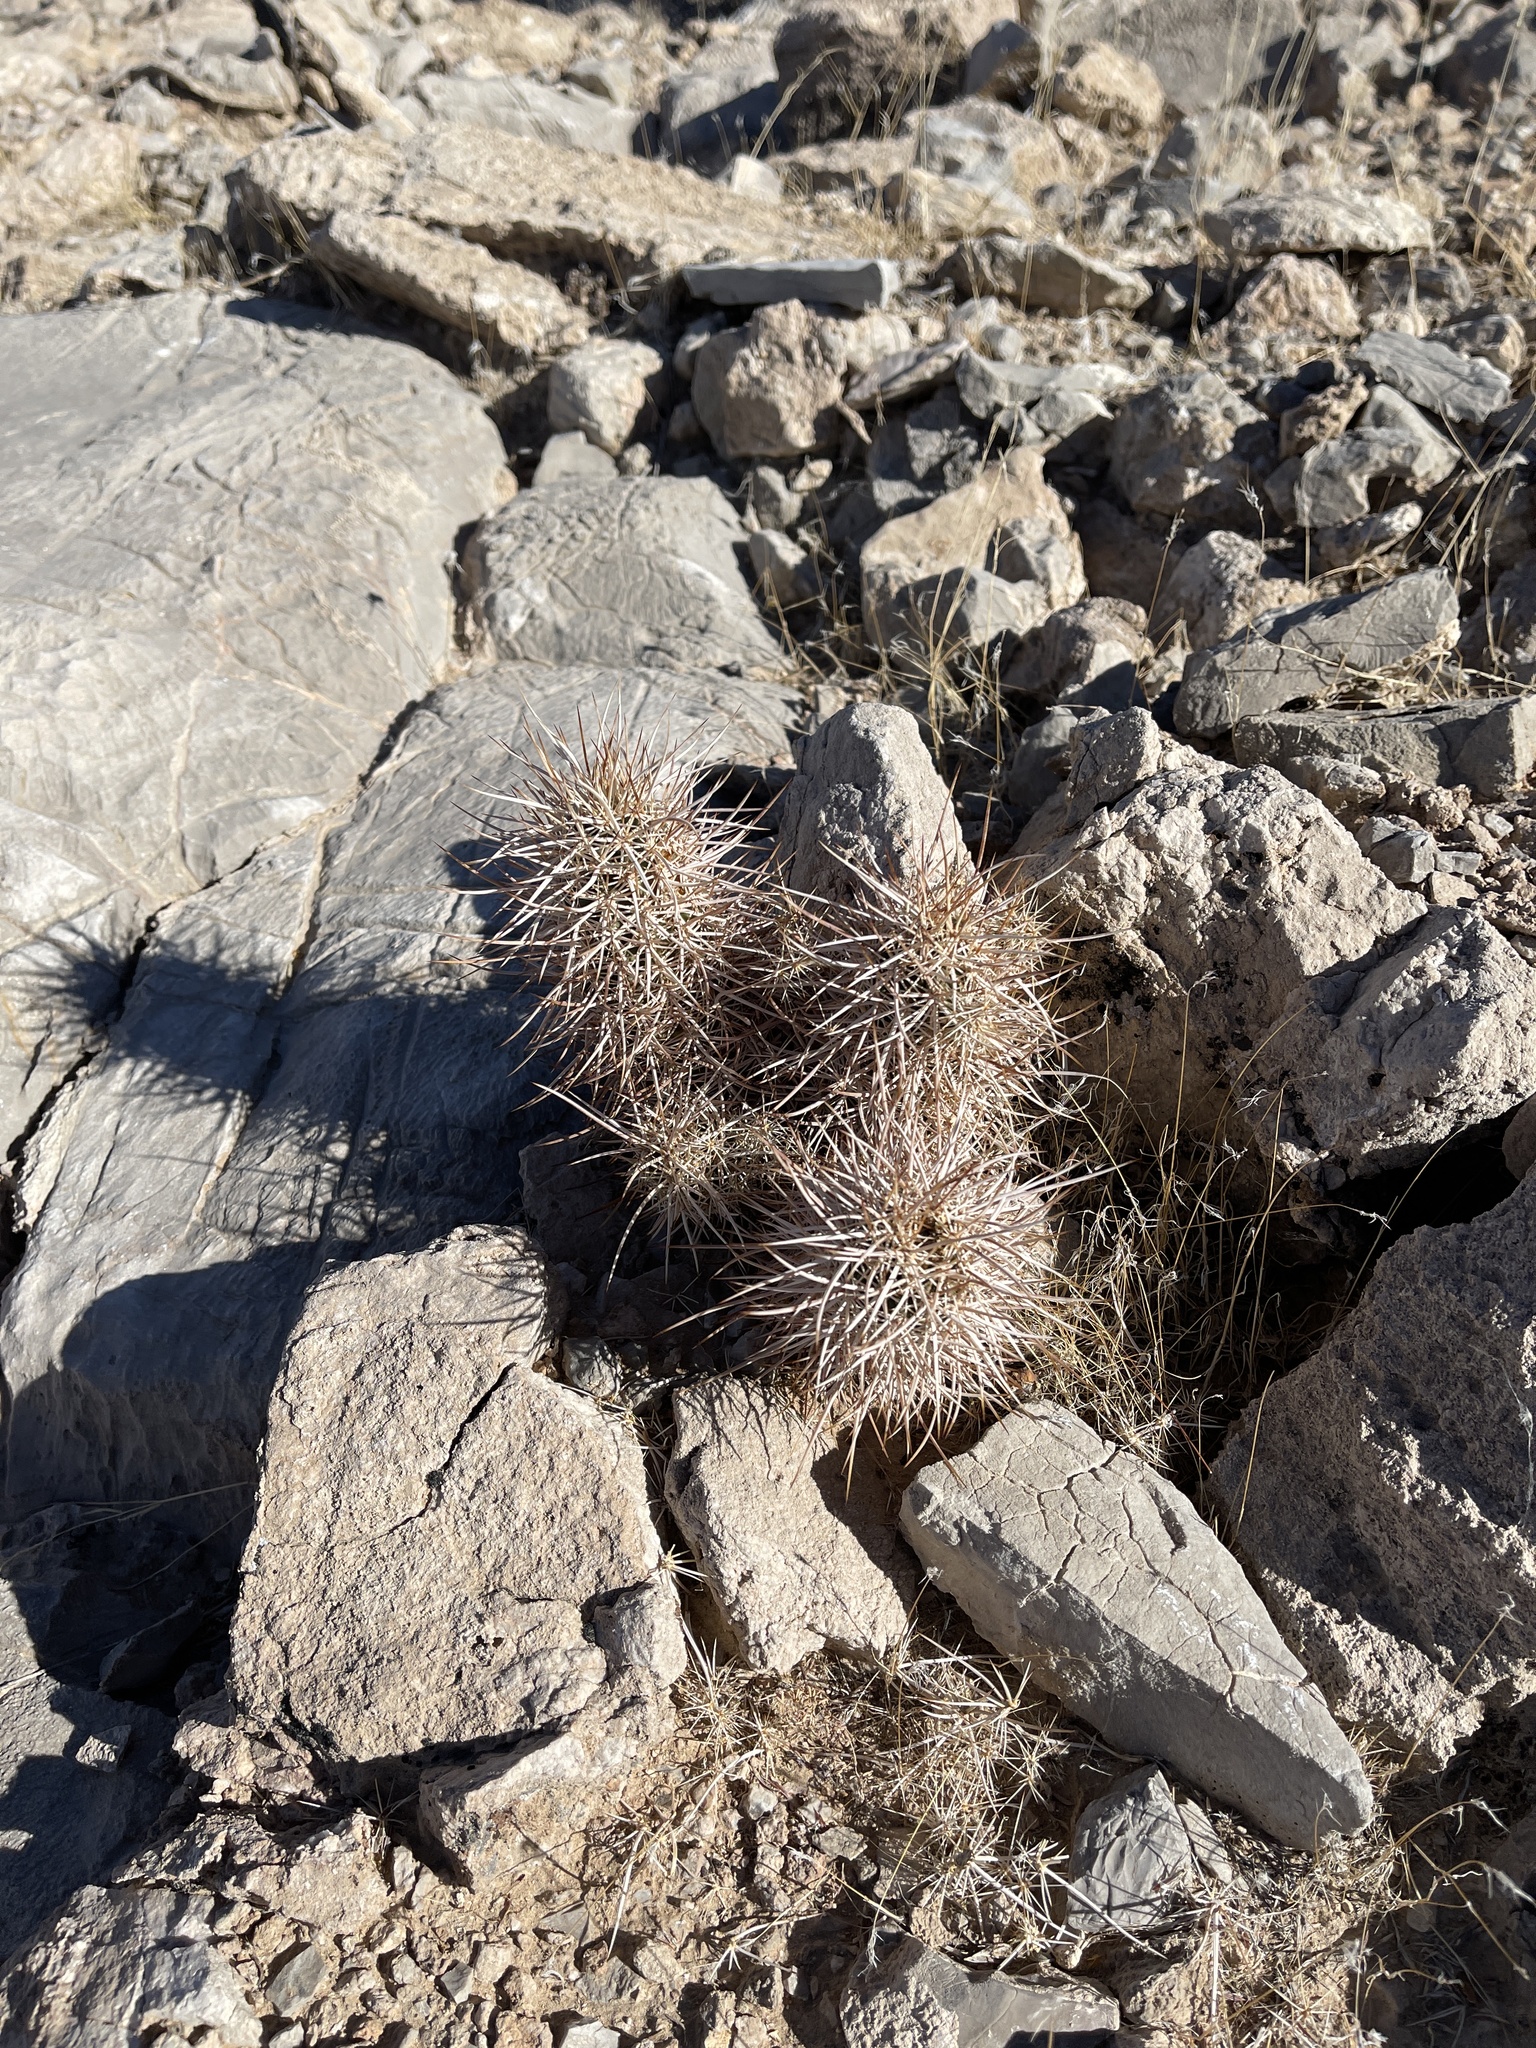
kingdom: Plantae
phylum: Tracheophyta
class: Magnoliopsida
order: Caryophyllales
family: Cactaceae
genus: Echinocereus
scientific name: Echinocereus engelmannii
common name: Engelmann's hedgehog cactus
